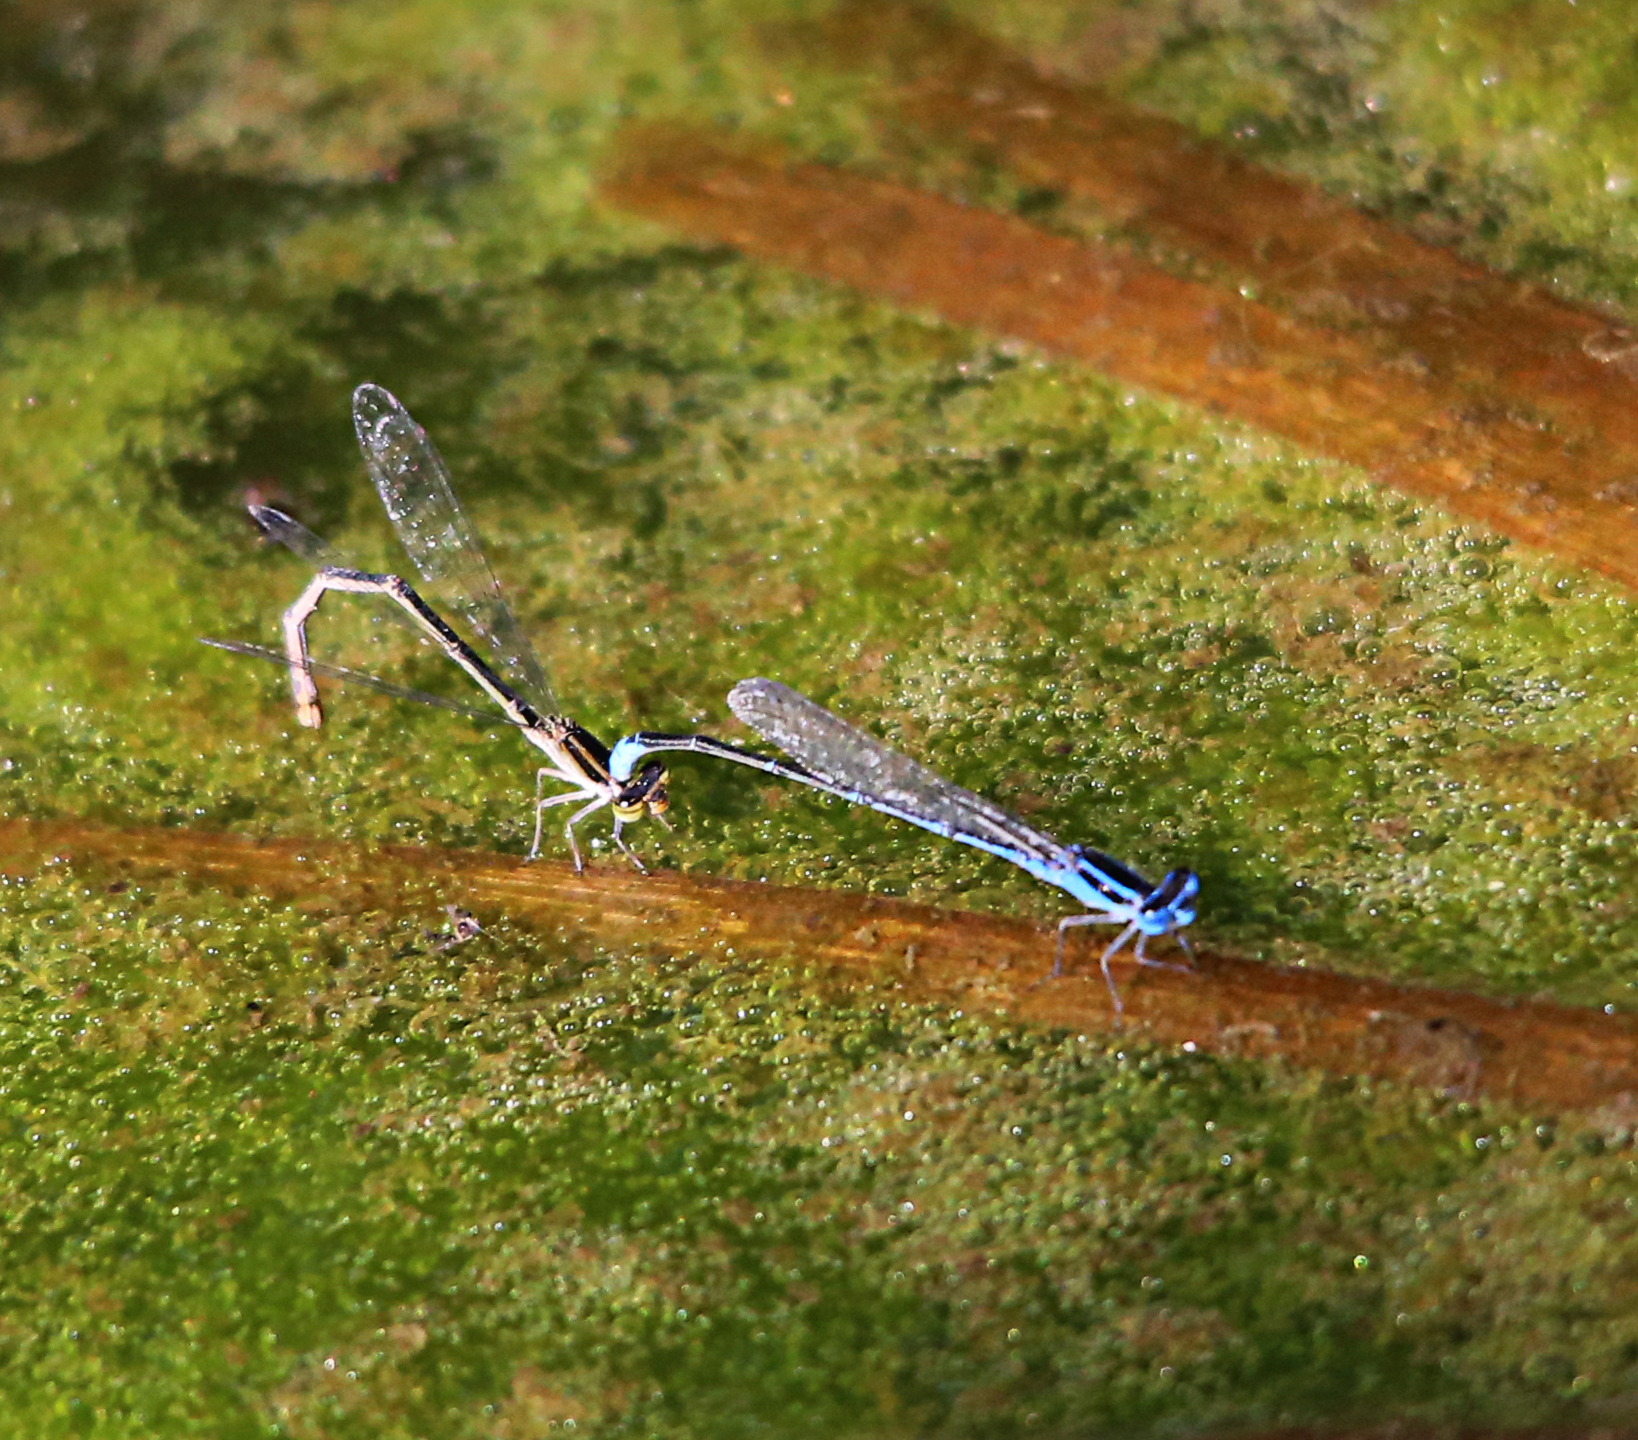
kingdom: Animalia
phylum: Arthropoda
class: Insecta
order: Odonata
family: Coenagrionidae
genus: Azuragrion
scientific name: Azuragrion nigridorsum
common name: Sailing azuret
